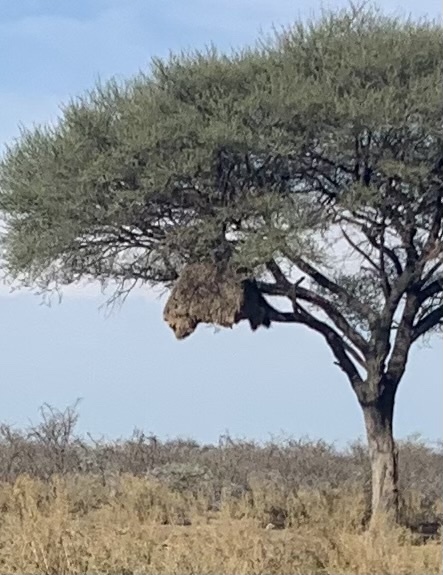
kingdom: Animalia
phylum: Chordata
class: Aves
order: Passeriformes
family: Passeridae
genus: Philetairus
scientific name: Philetairus socius
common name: Sociable weaver
